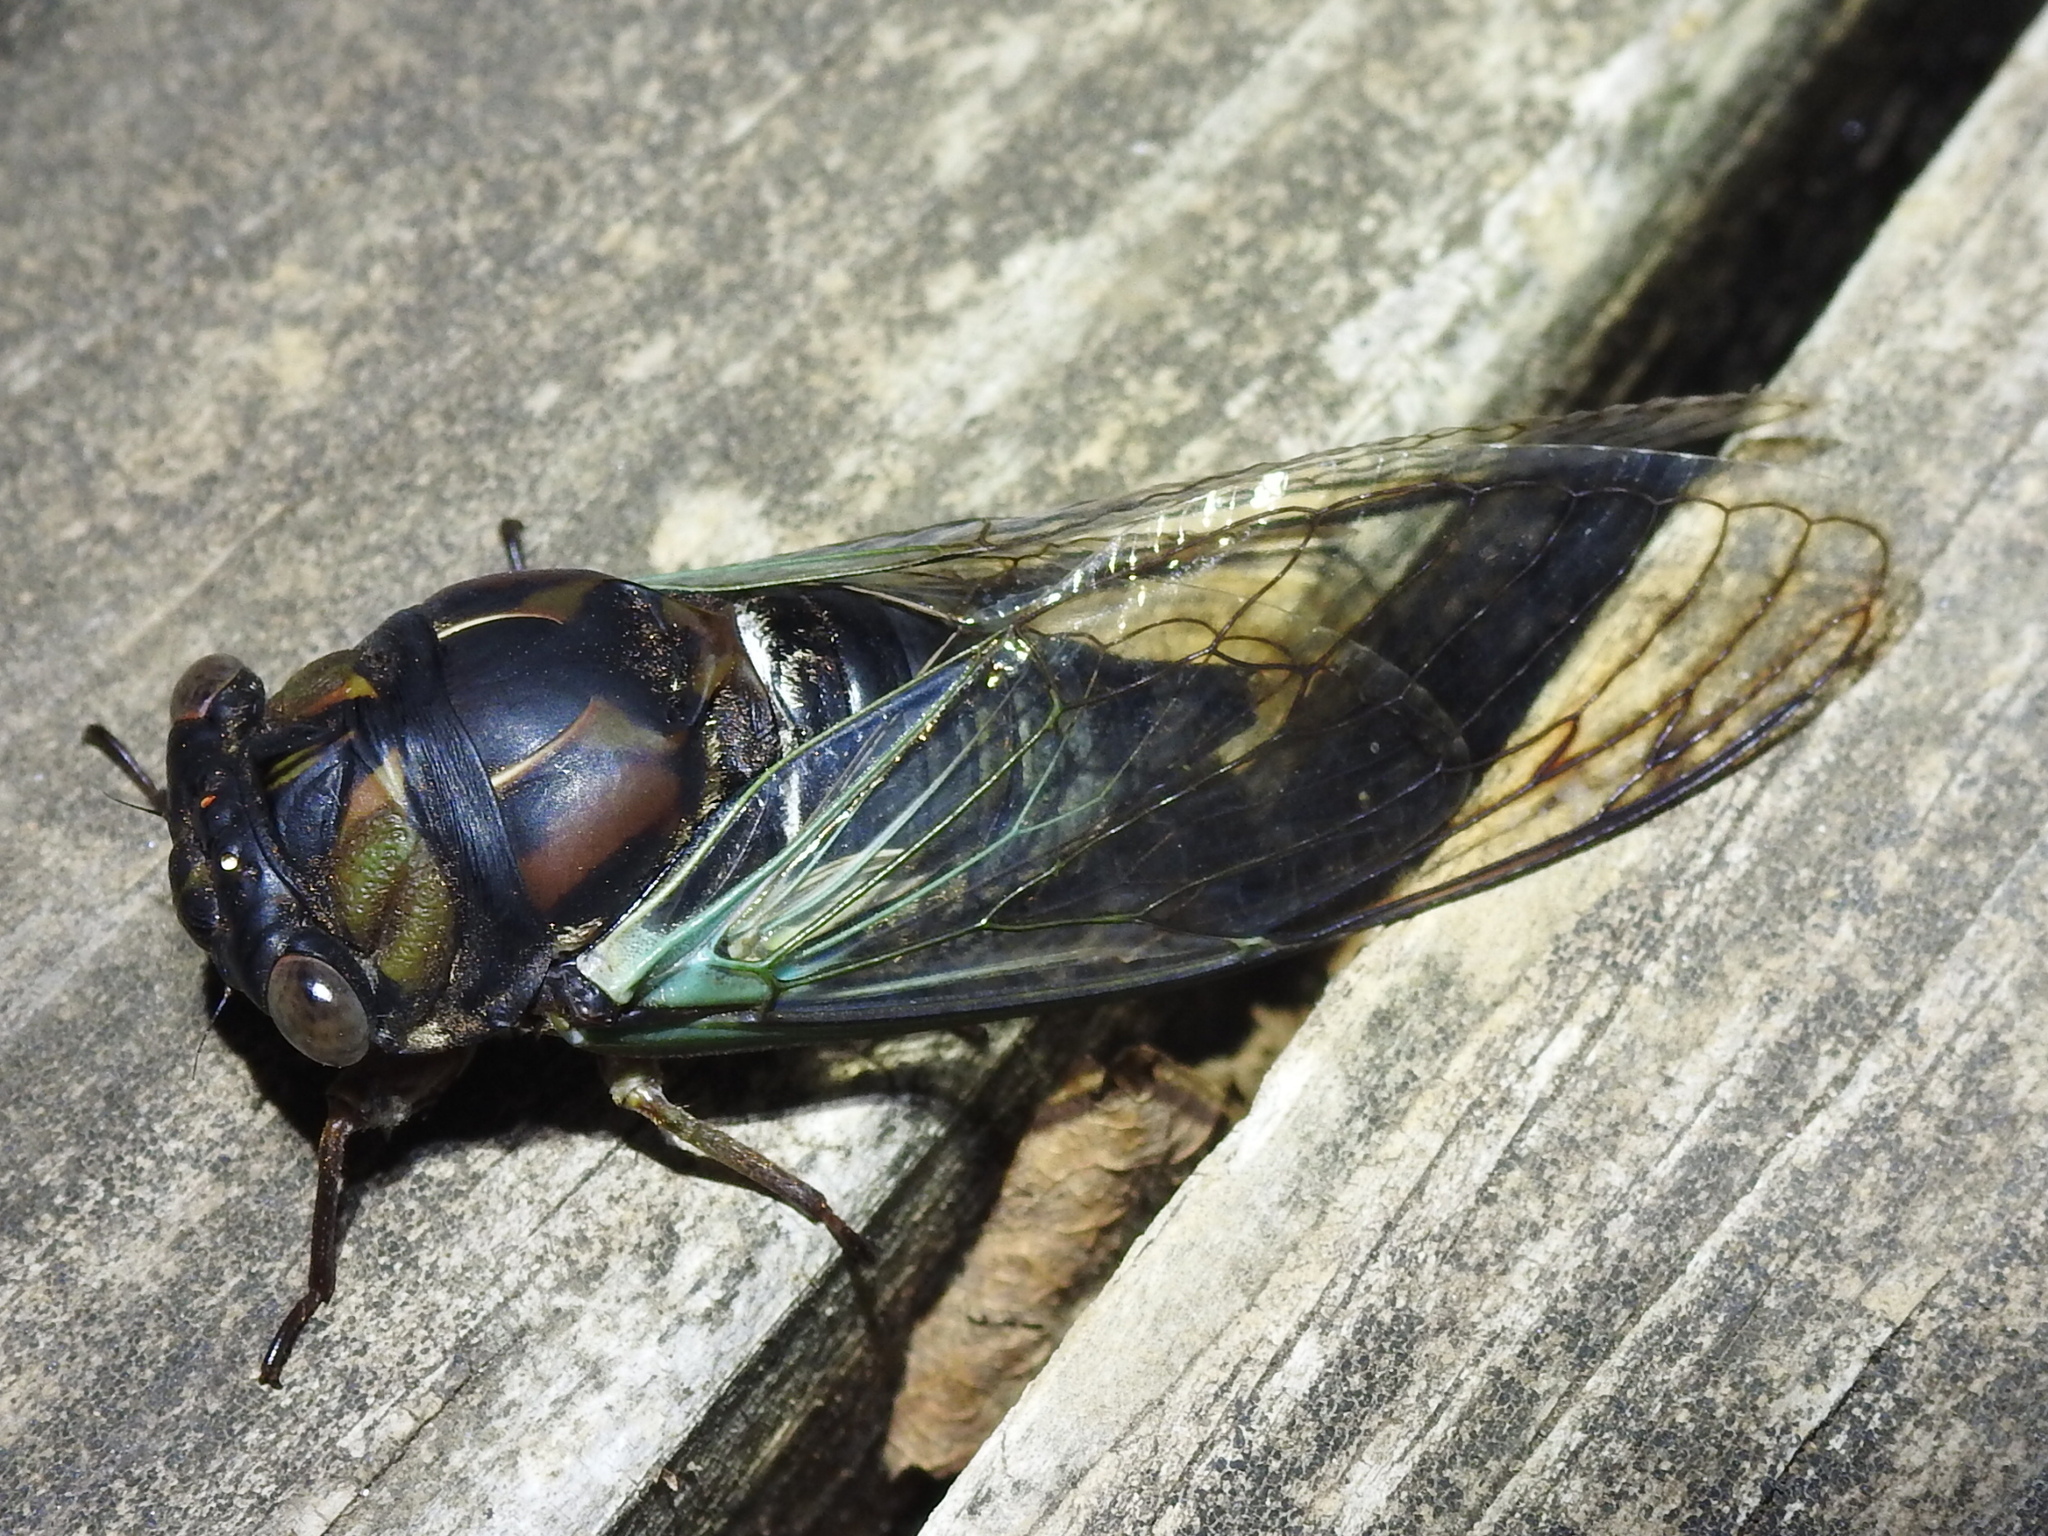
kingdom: Animalia
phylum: Arthropoda
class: Insecta
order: Hemiptera
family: Cicadidae
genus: Neotibicen
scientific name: Neotibicen lyricen
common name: Lyric cicada
